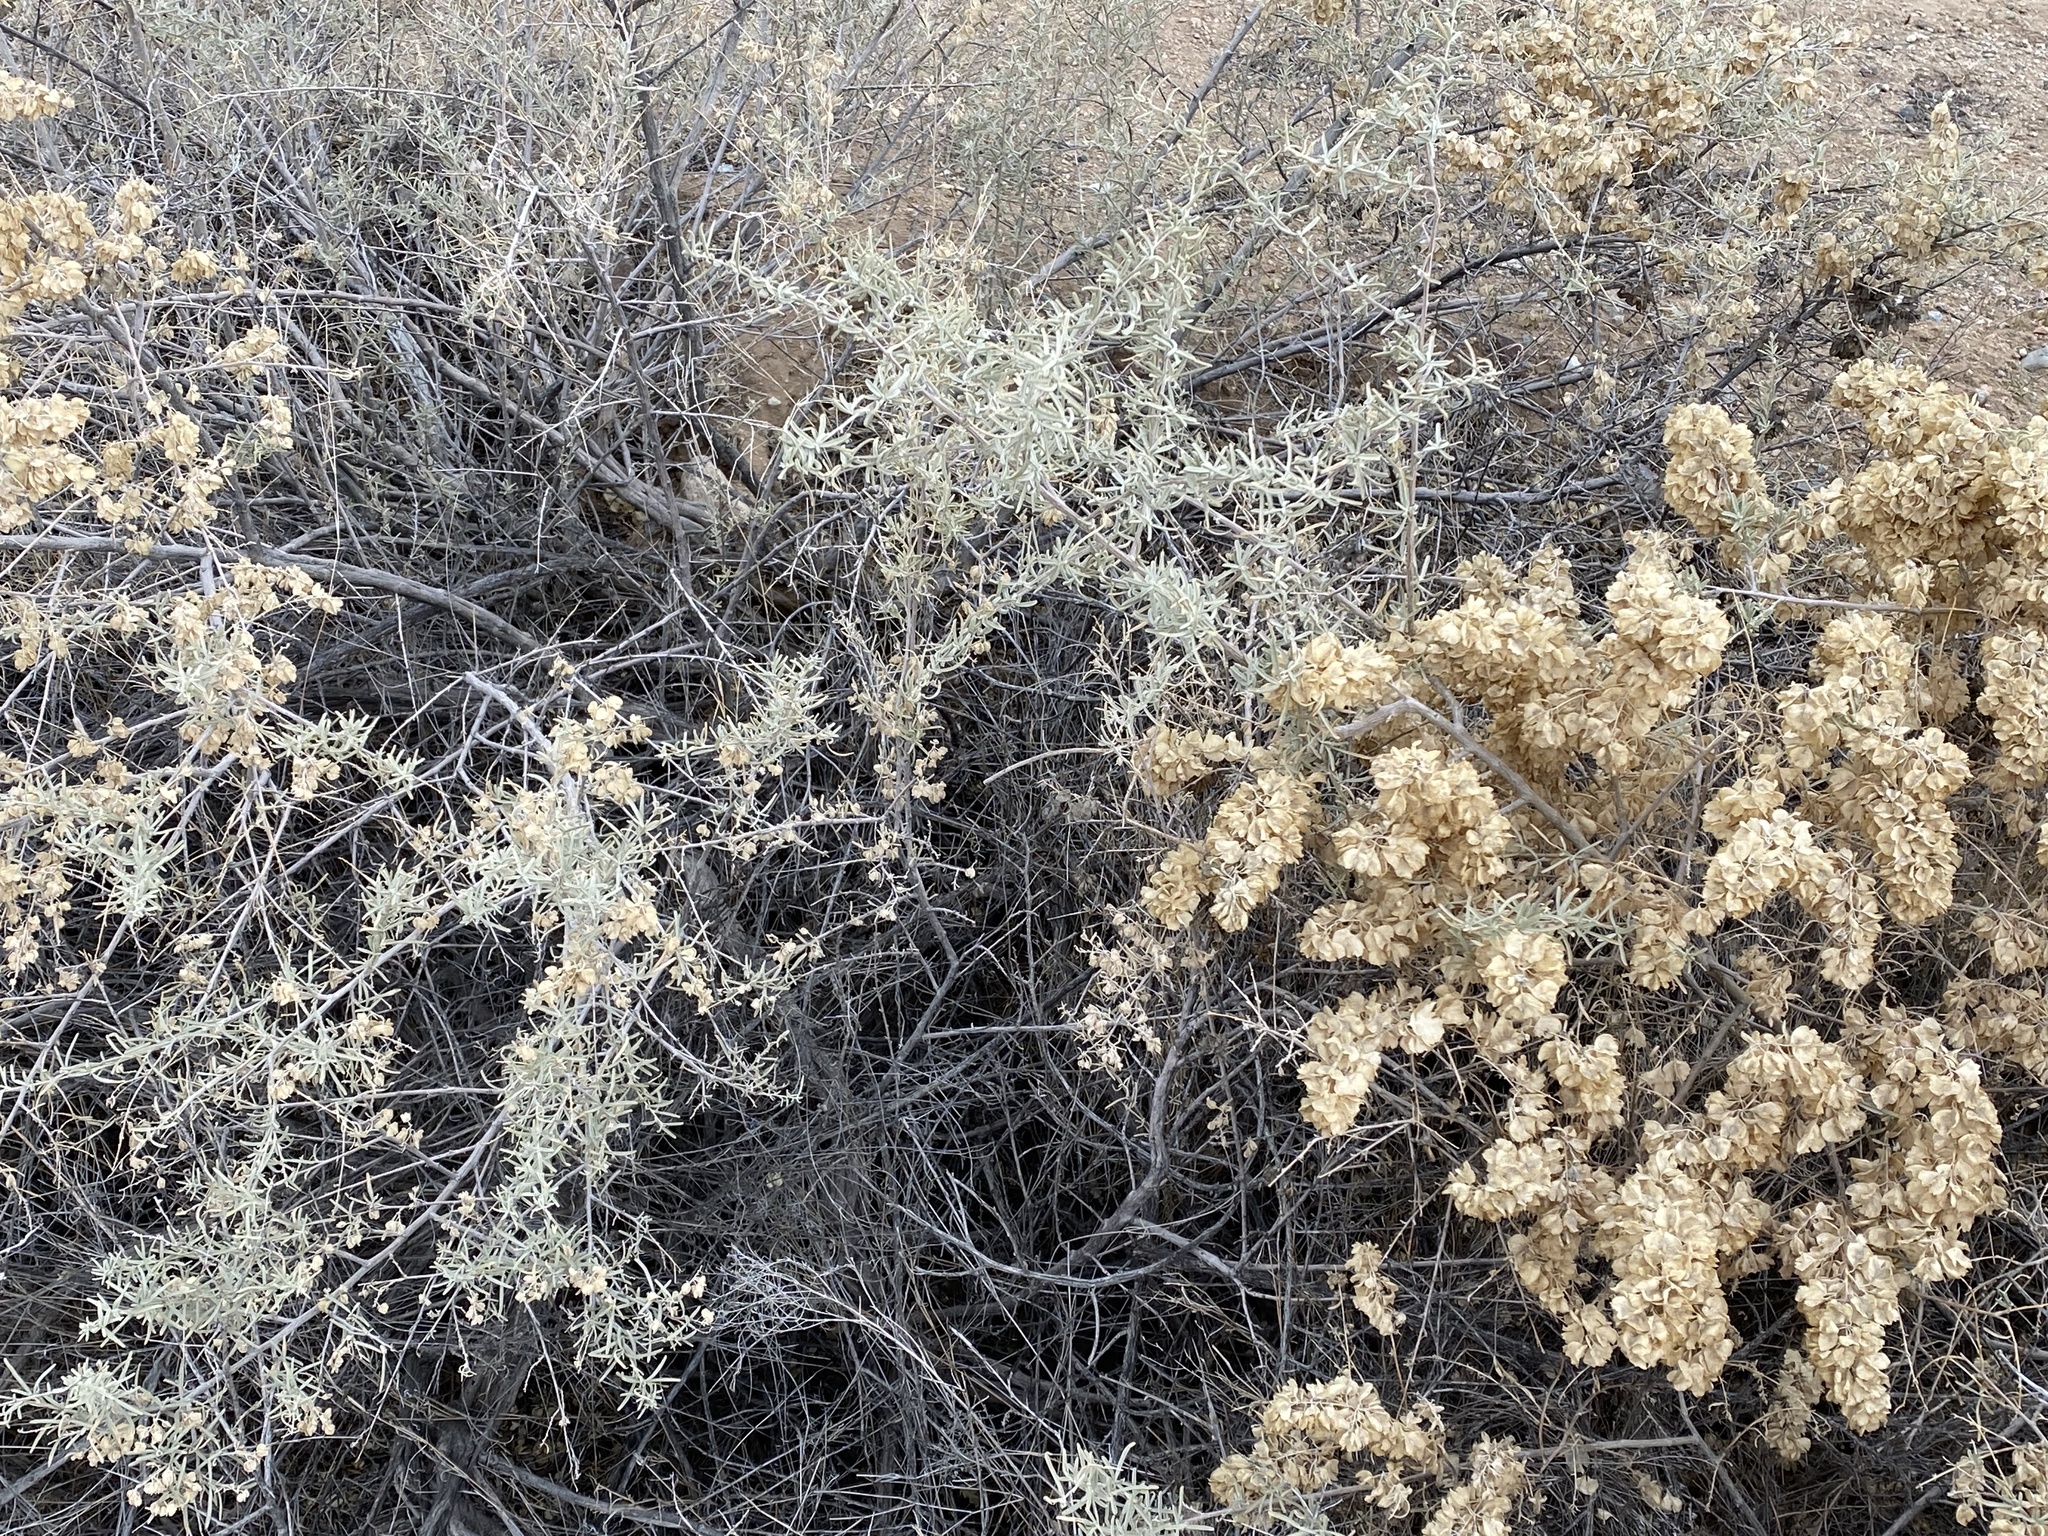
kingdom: Plantae
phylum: Tracheophyta
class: Magnoliopsida
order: Caryophyllales
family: Amaranthaceae
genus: Atriplex
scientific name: Atriplex canescens
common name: Four-wing saltbush
